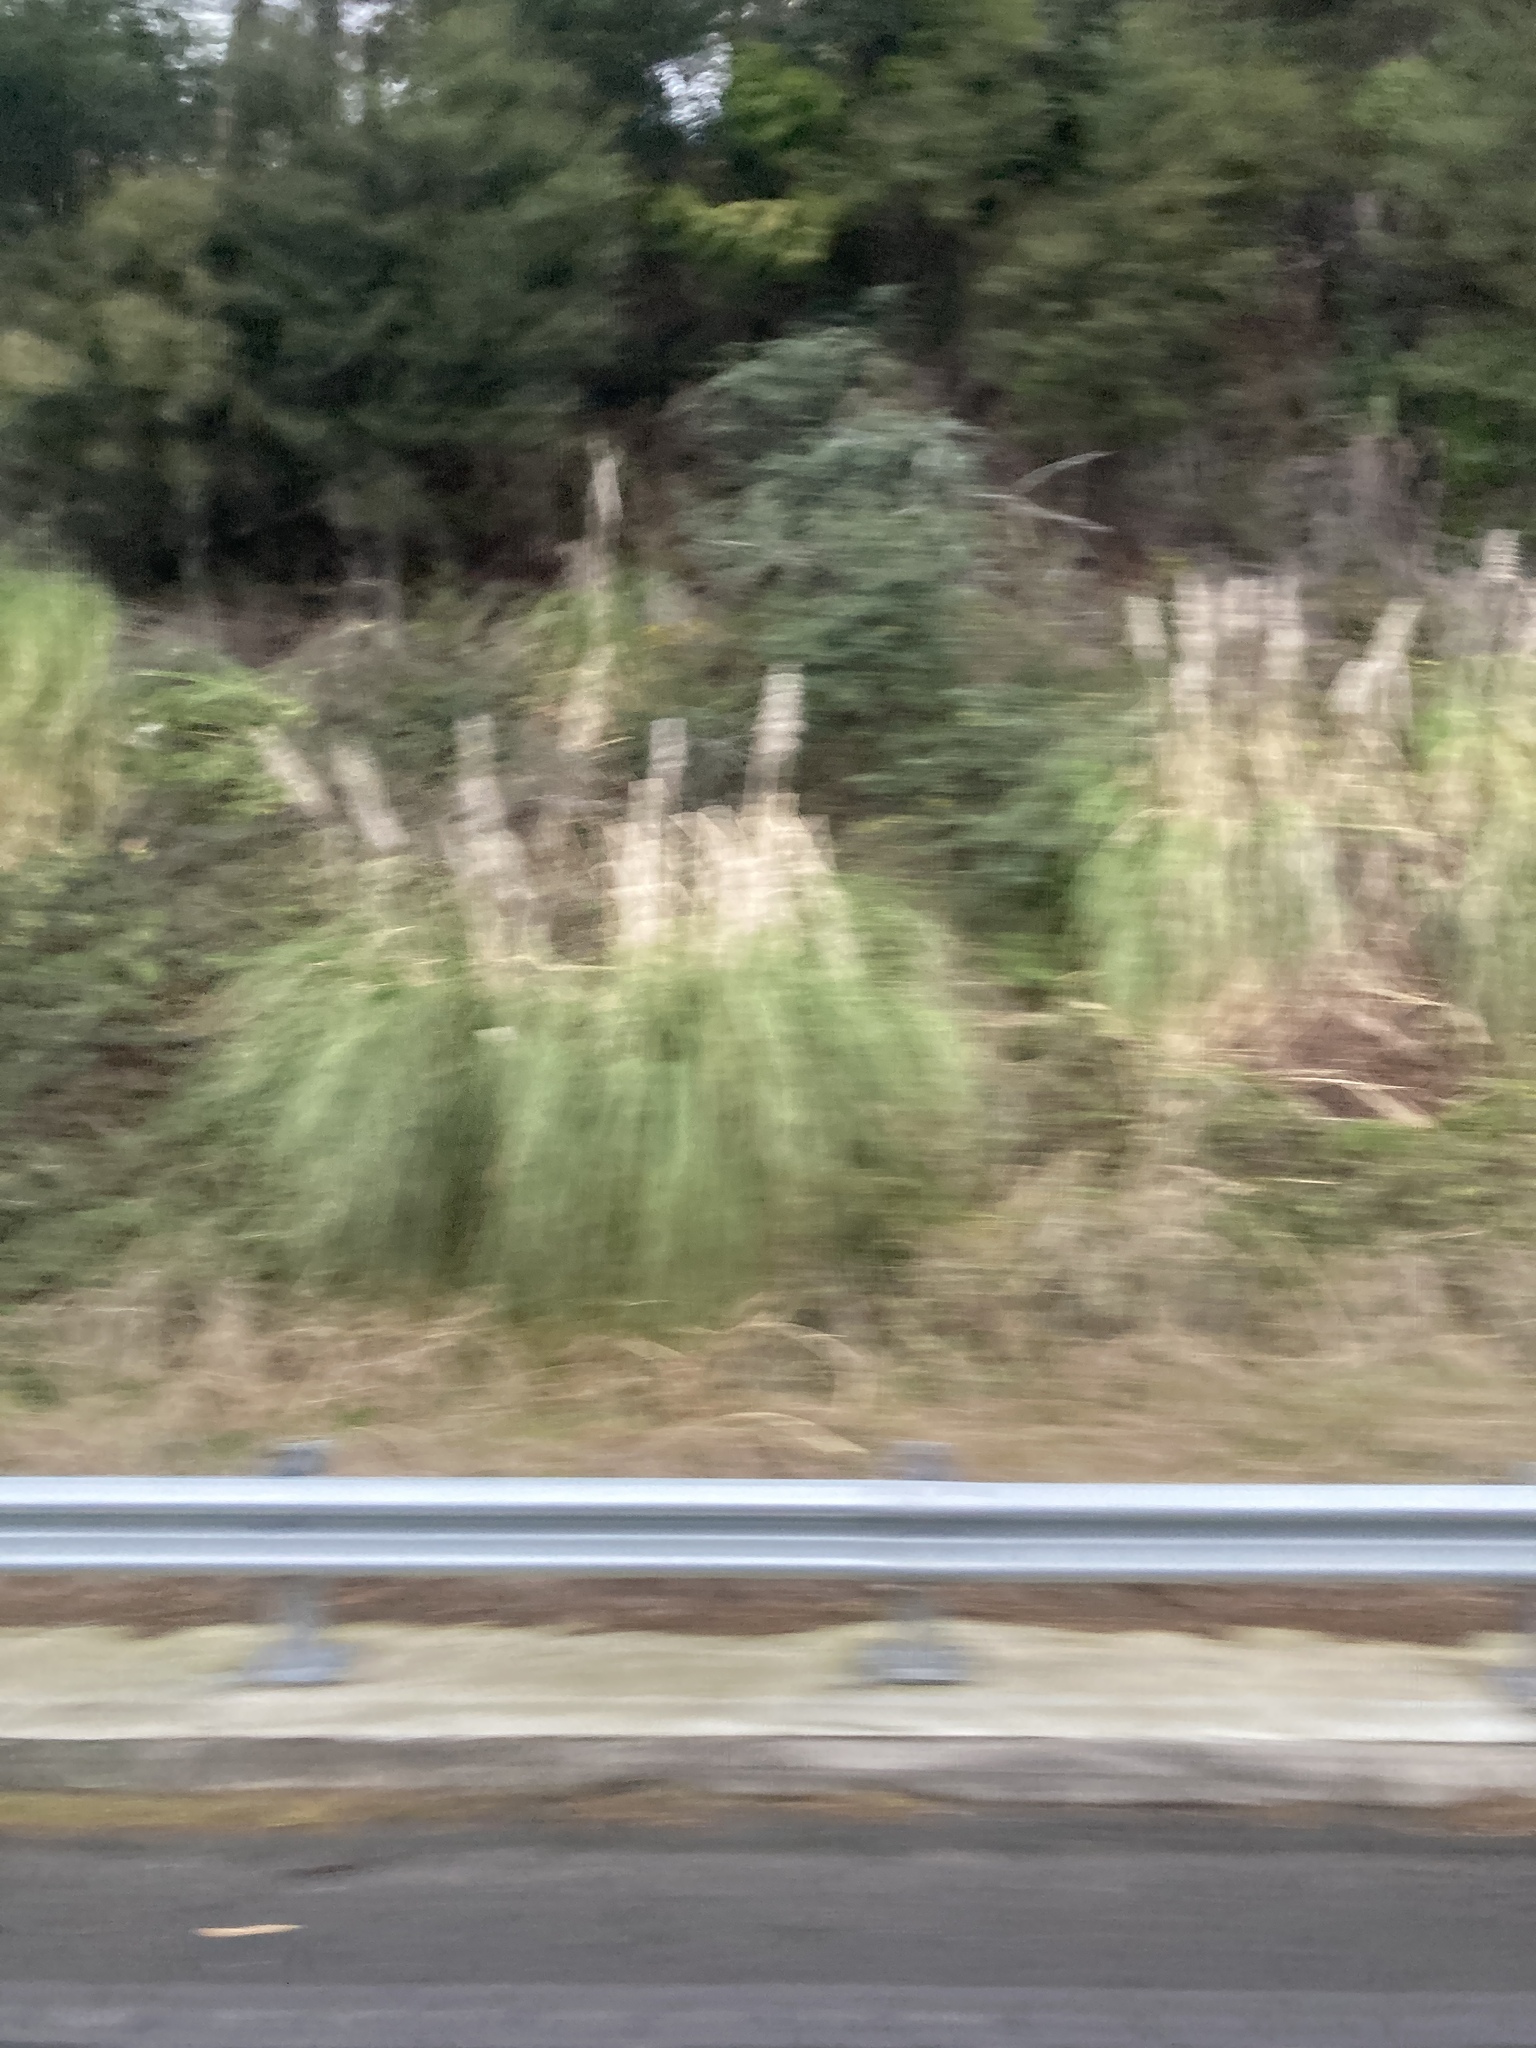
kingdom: Plantae
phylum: Tracheophyta
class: Liliopsida
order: Poales
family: Poaceae
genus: Cortaderia
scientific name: Cortaderia selloana
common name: Uruguayan pampas grass
